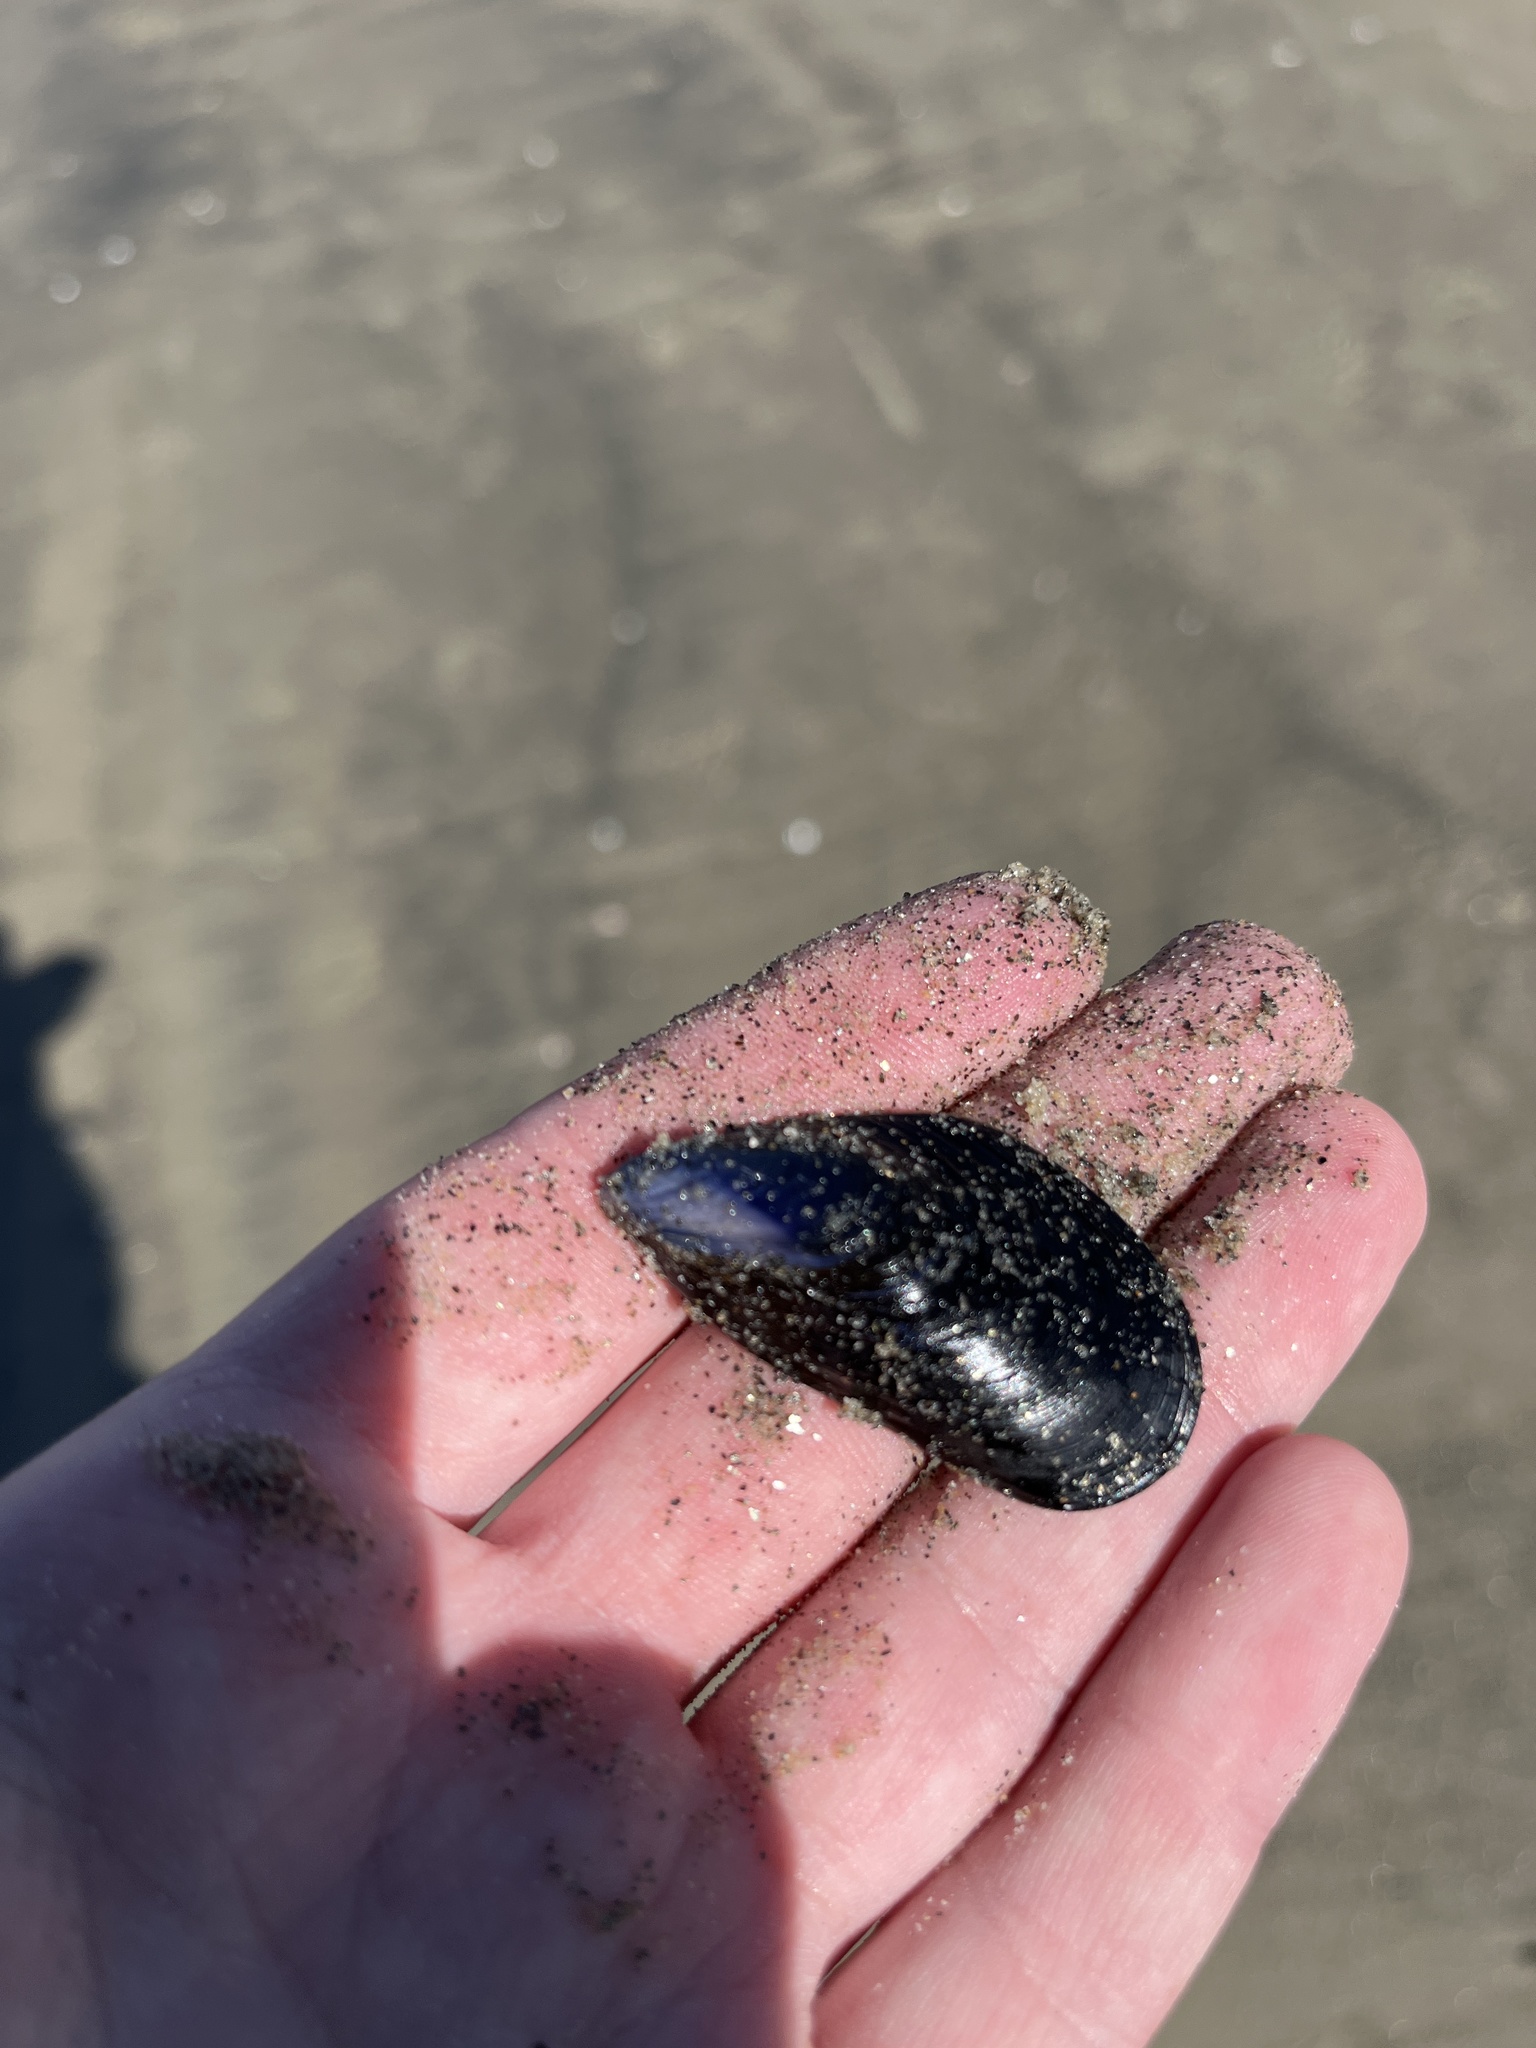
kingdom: Animalia
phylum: Mollusca
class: Bivalvia
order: Mytilida
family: Mytilidae
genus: Mytilus
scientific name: Mytilus galloprovincialis
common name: Mediterranean mussel
